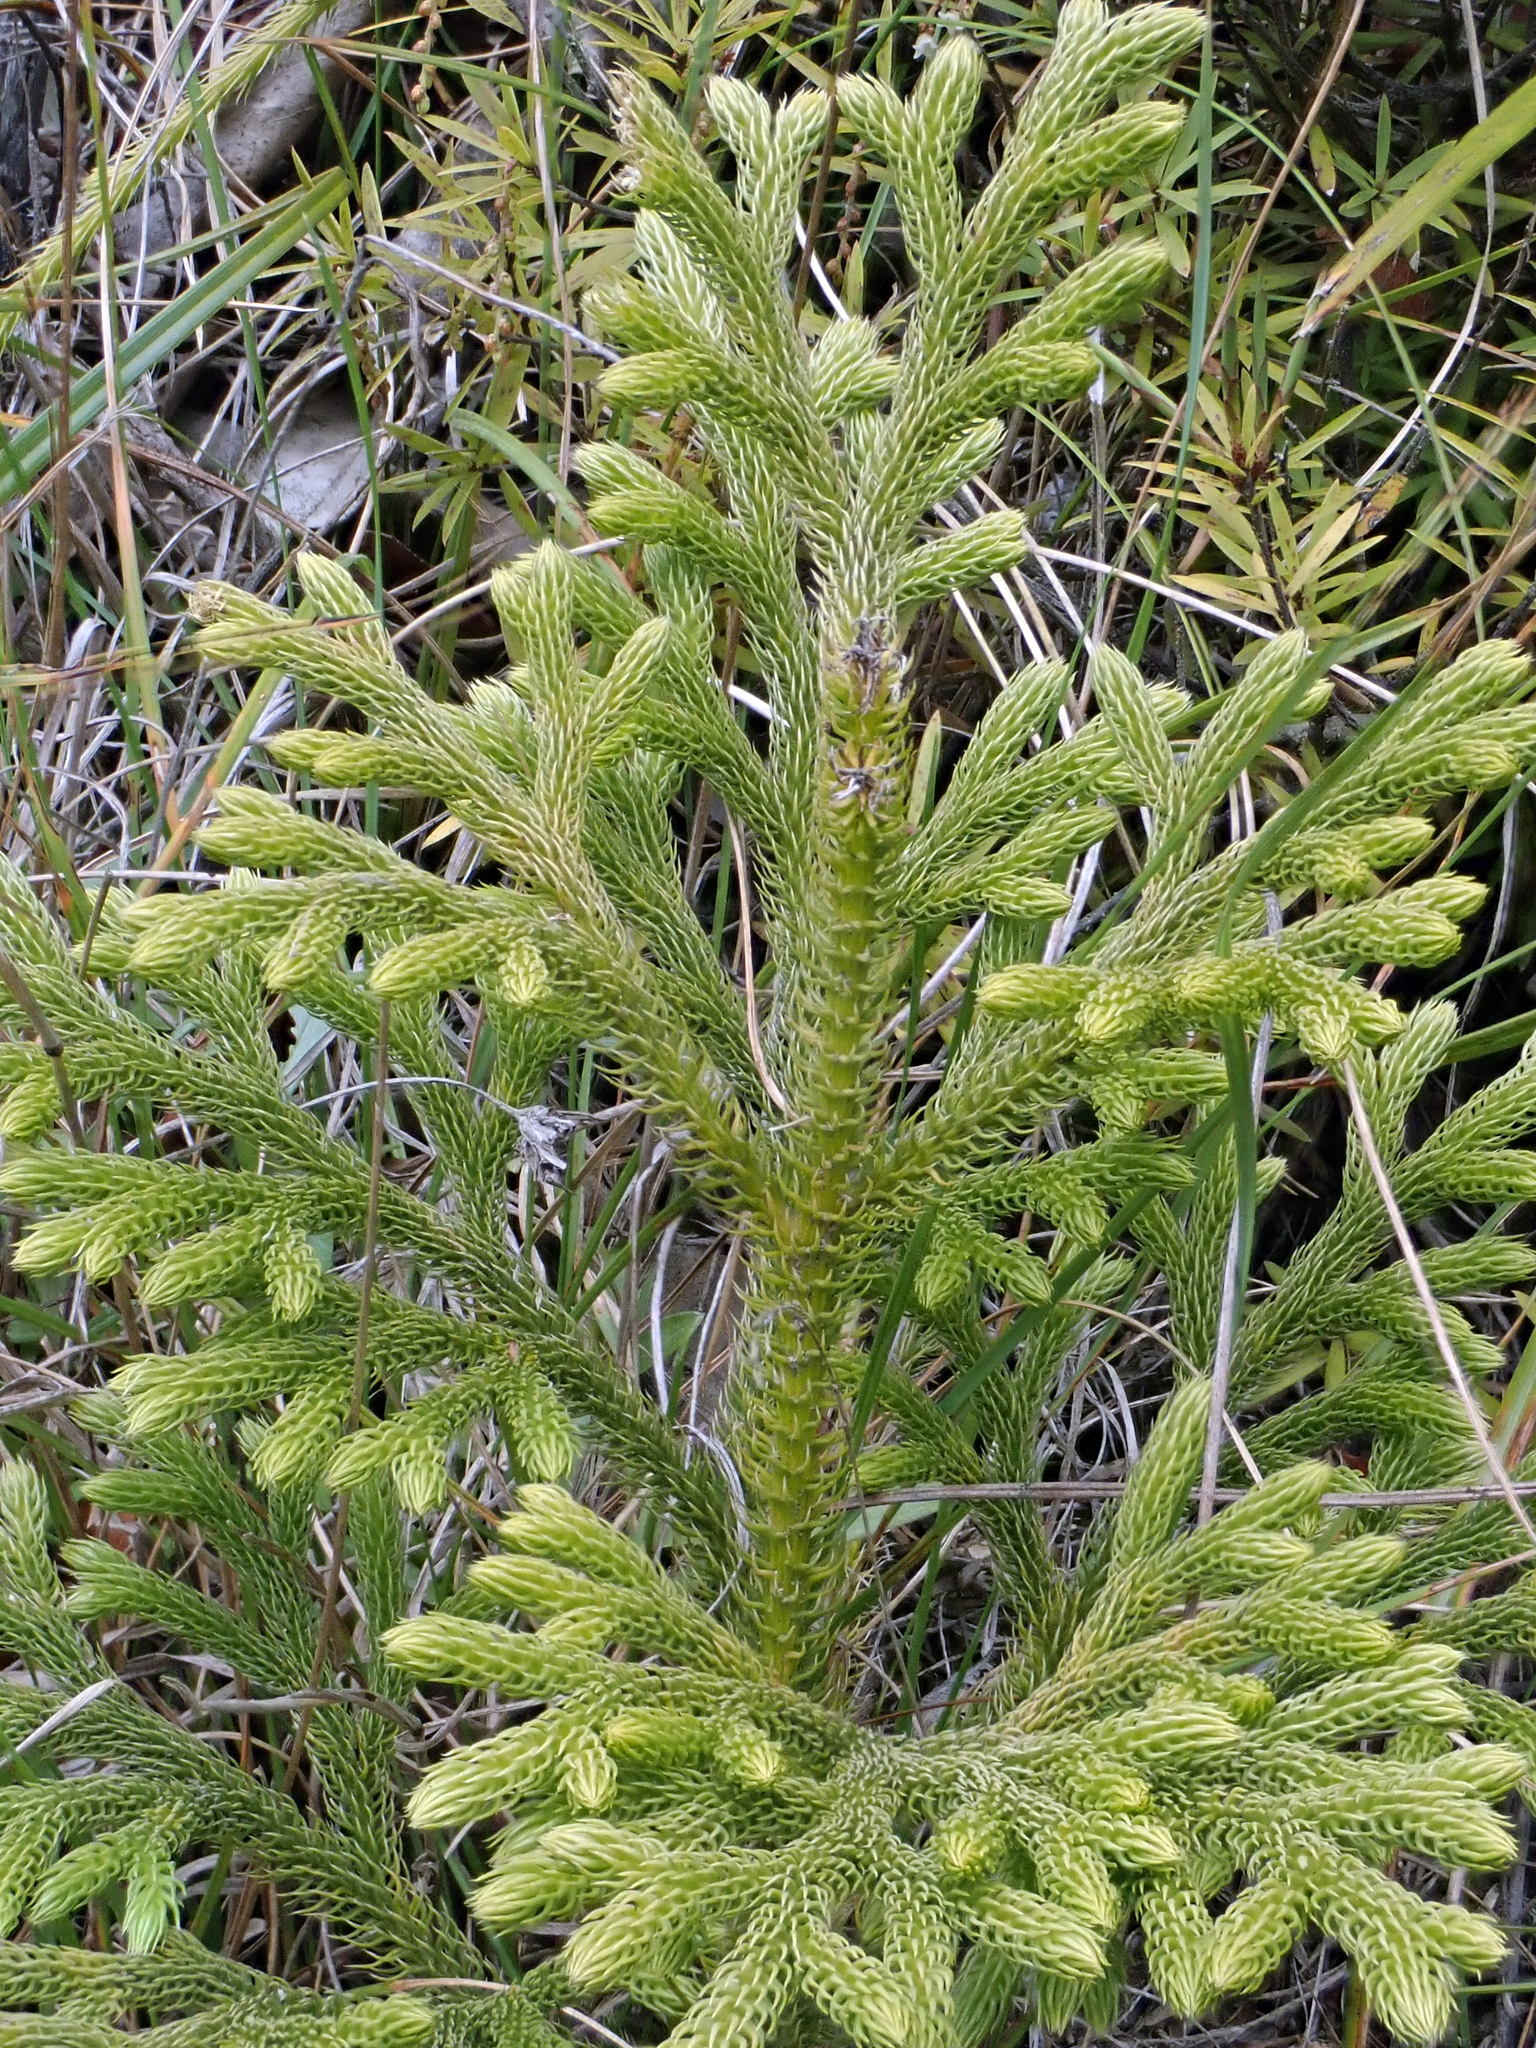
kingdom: Plantae
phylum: Tracheophyta
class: Lycopodiopsida
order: Lycopodiales
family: Lycopodiaceae
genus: Palhinhaea
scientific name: Palhinhaea cernua
